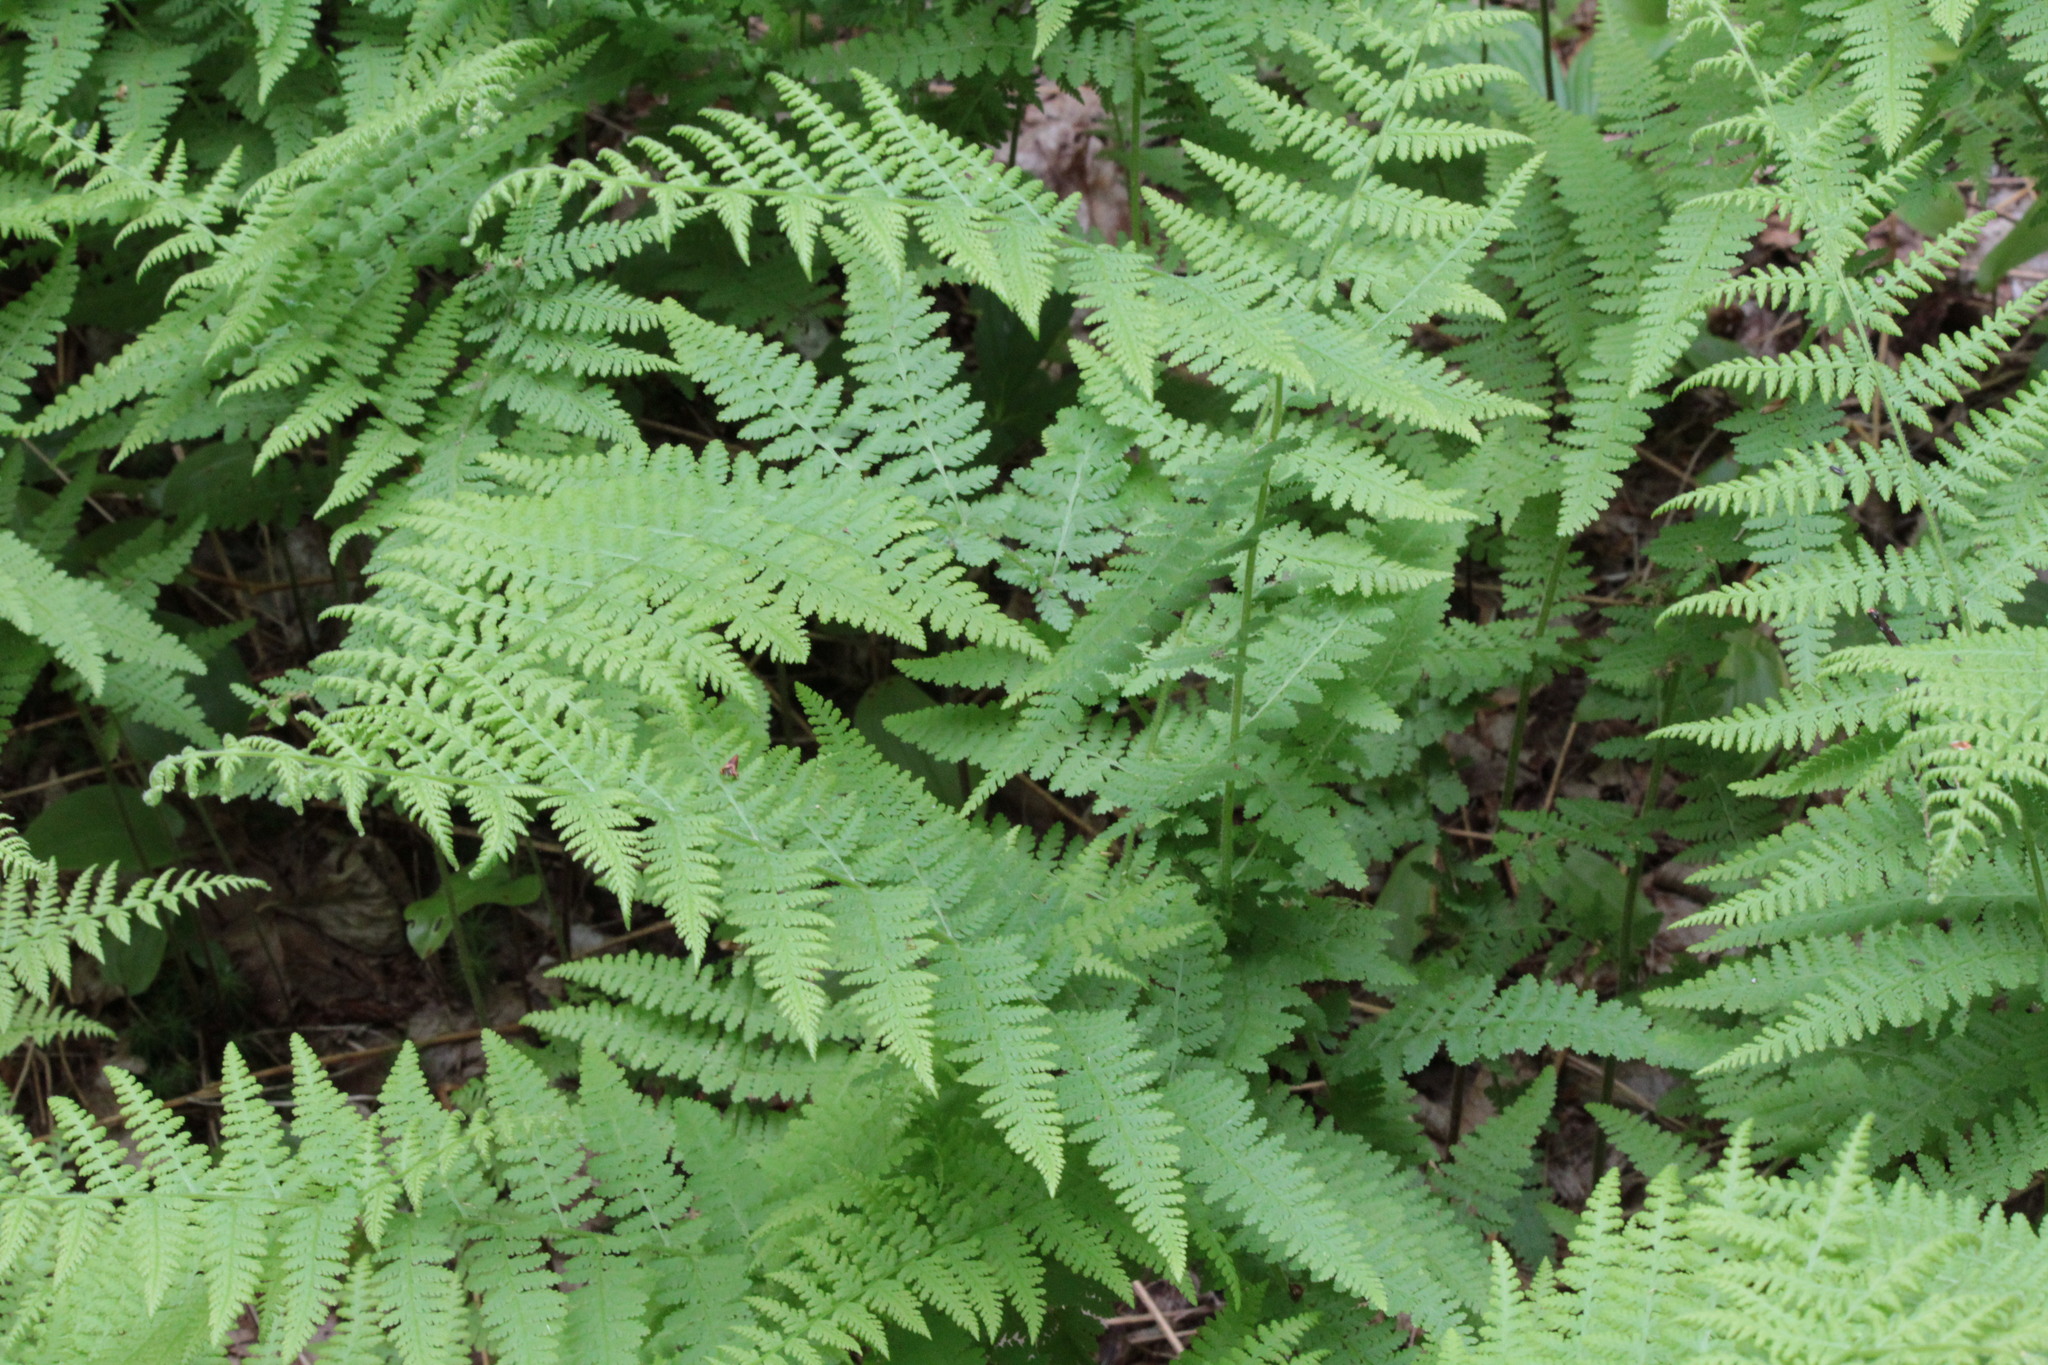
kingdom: Plantae
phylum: Tracheophyta
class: Polypodiopsida
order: Polypodiales
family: Dennstaedtiaceae
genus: Sitobolium
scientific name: Sitobolium punctilobum
